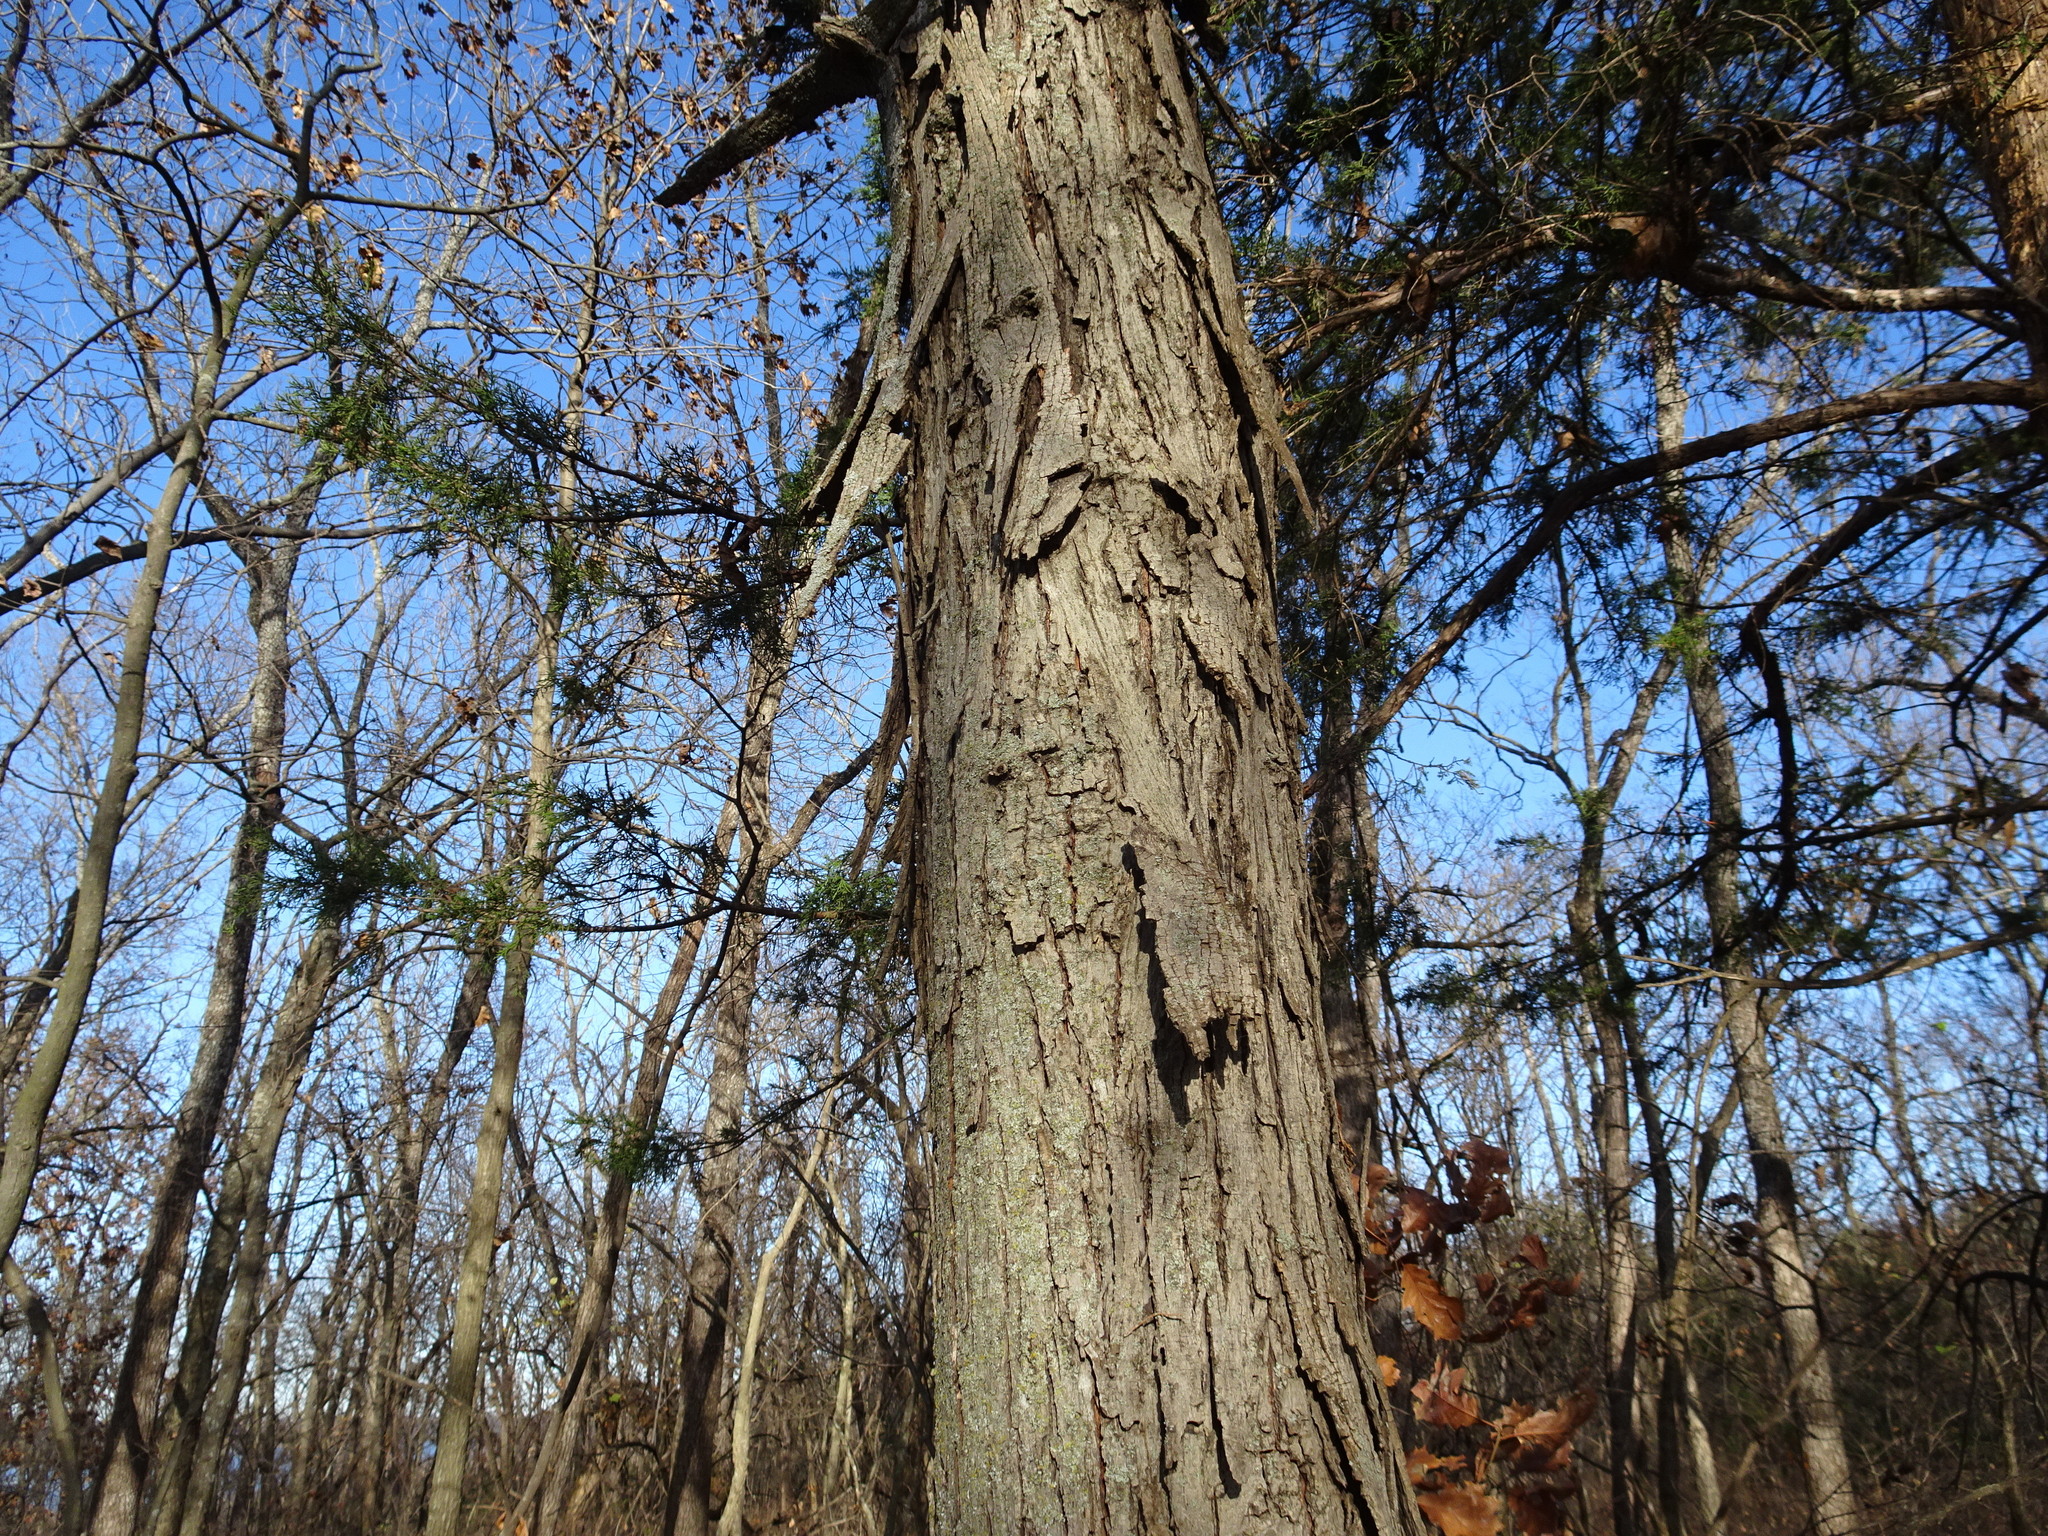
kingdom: Plantae
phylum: Tracheophyta
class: Magnoliopsida
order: Fagales
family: Juglandaceae
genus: Carya
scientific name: Carya ovata
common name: Shagbark hickory
